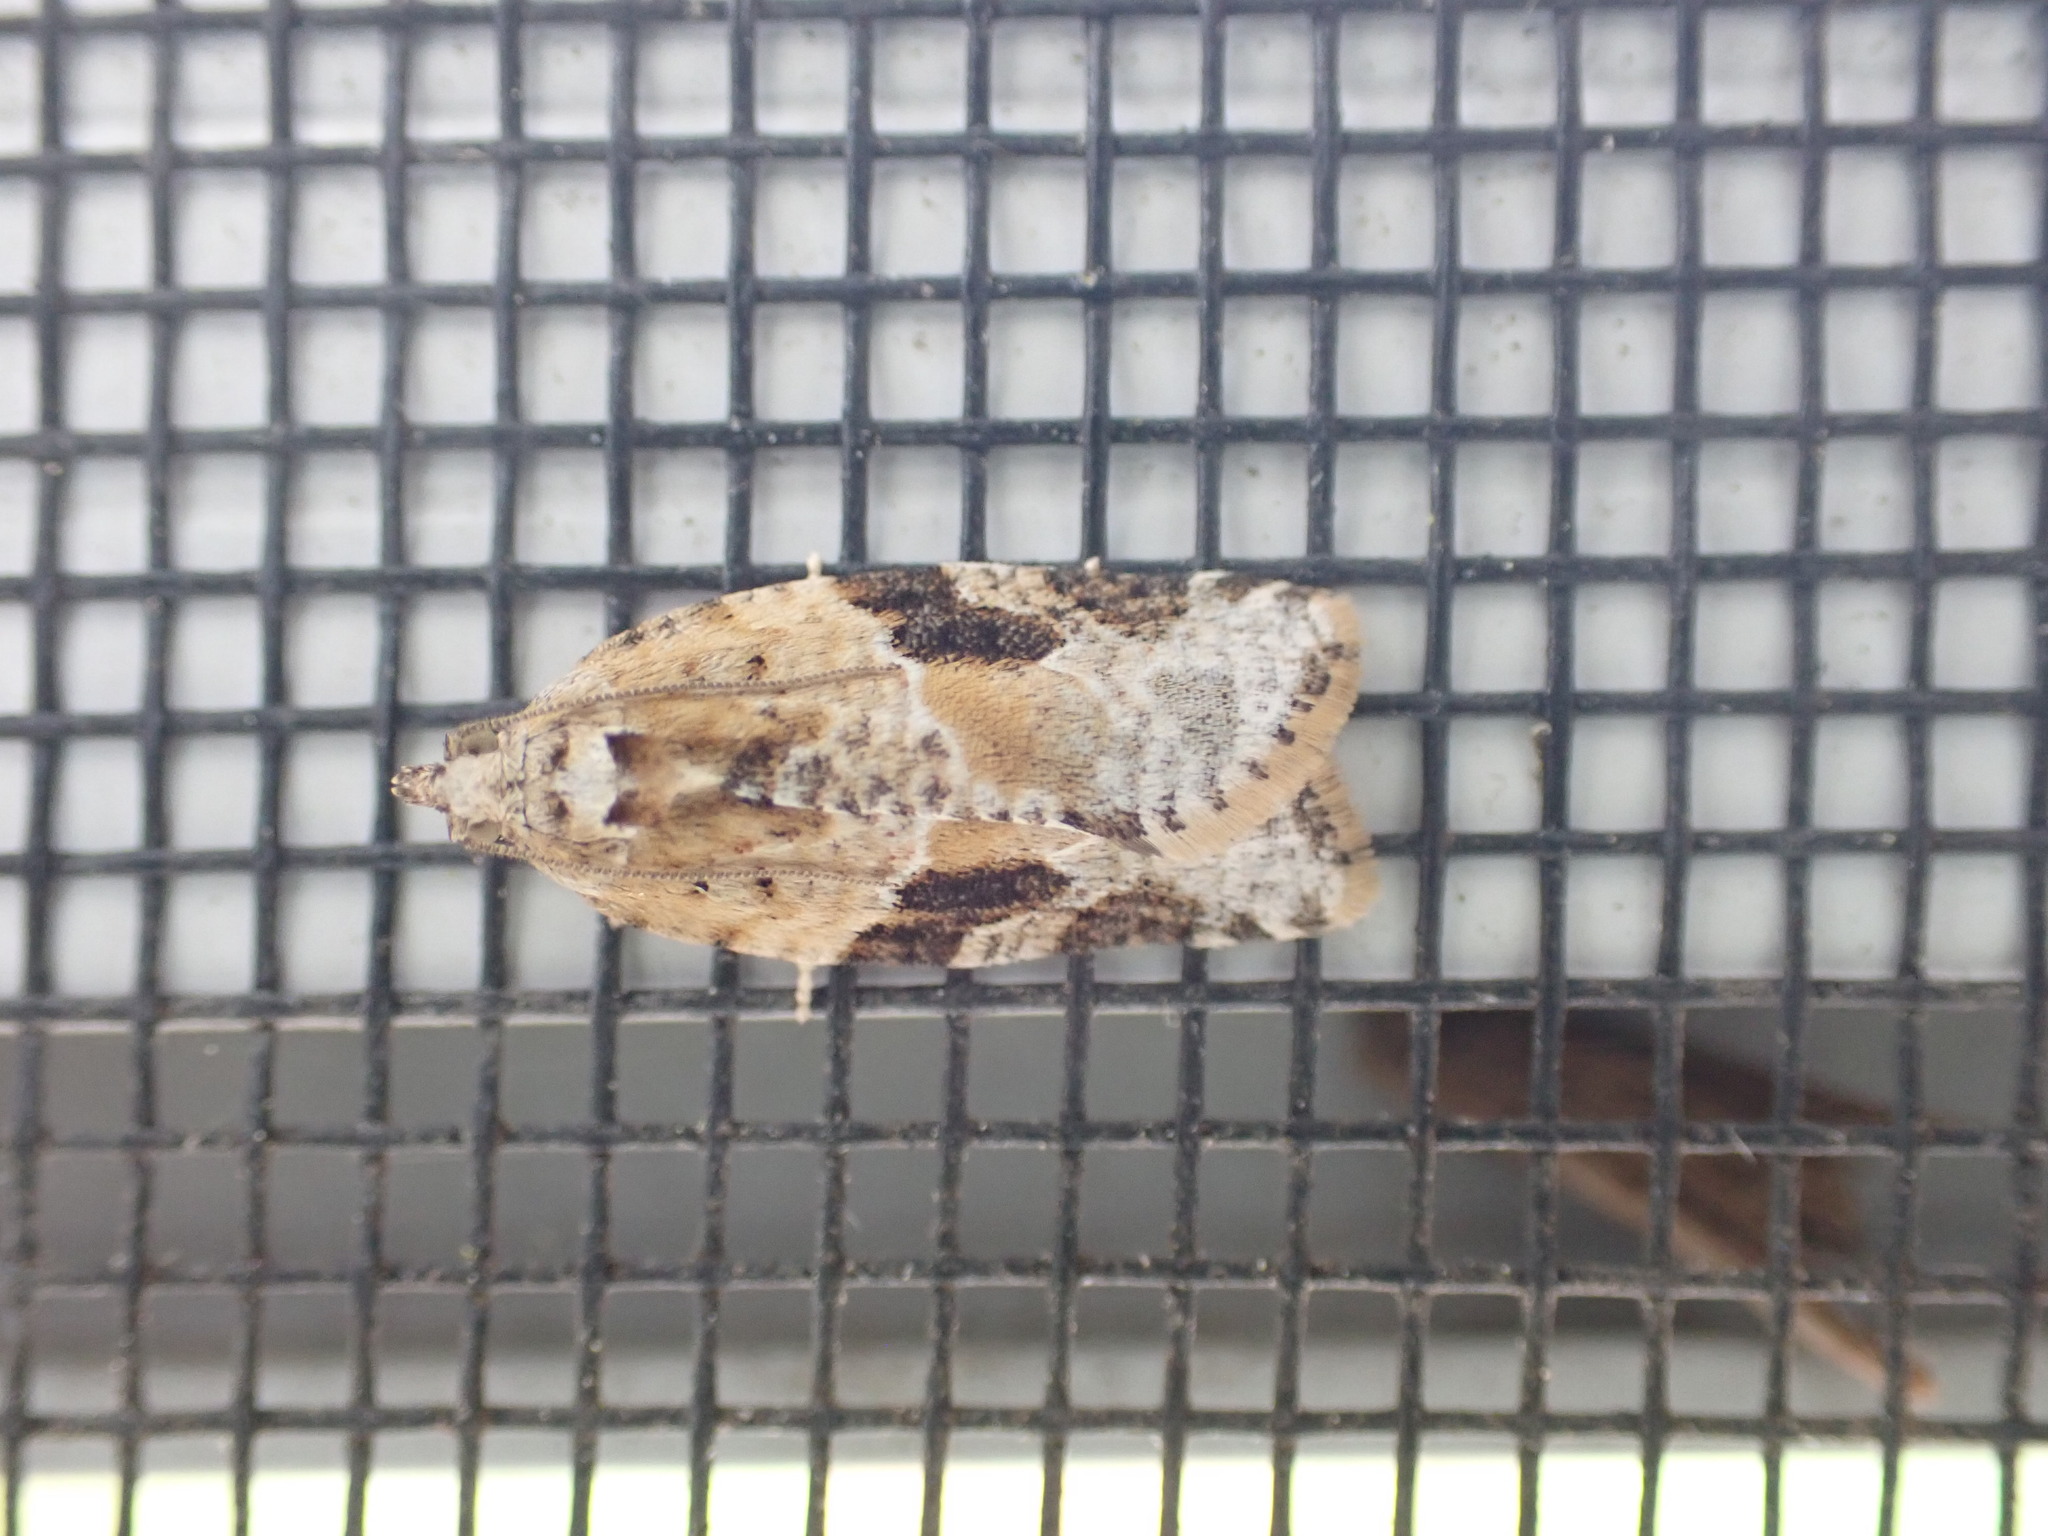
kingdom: Animalia
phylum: Arthropoda
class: Insecta
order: Lepidoptera
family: Tortricidae
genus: Argyrotaenia
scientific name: Argyrotaenia mariana
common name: Gray-banded leafroller moth
